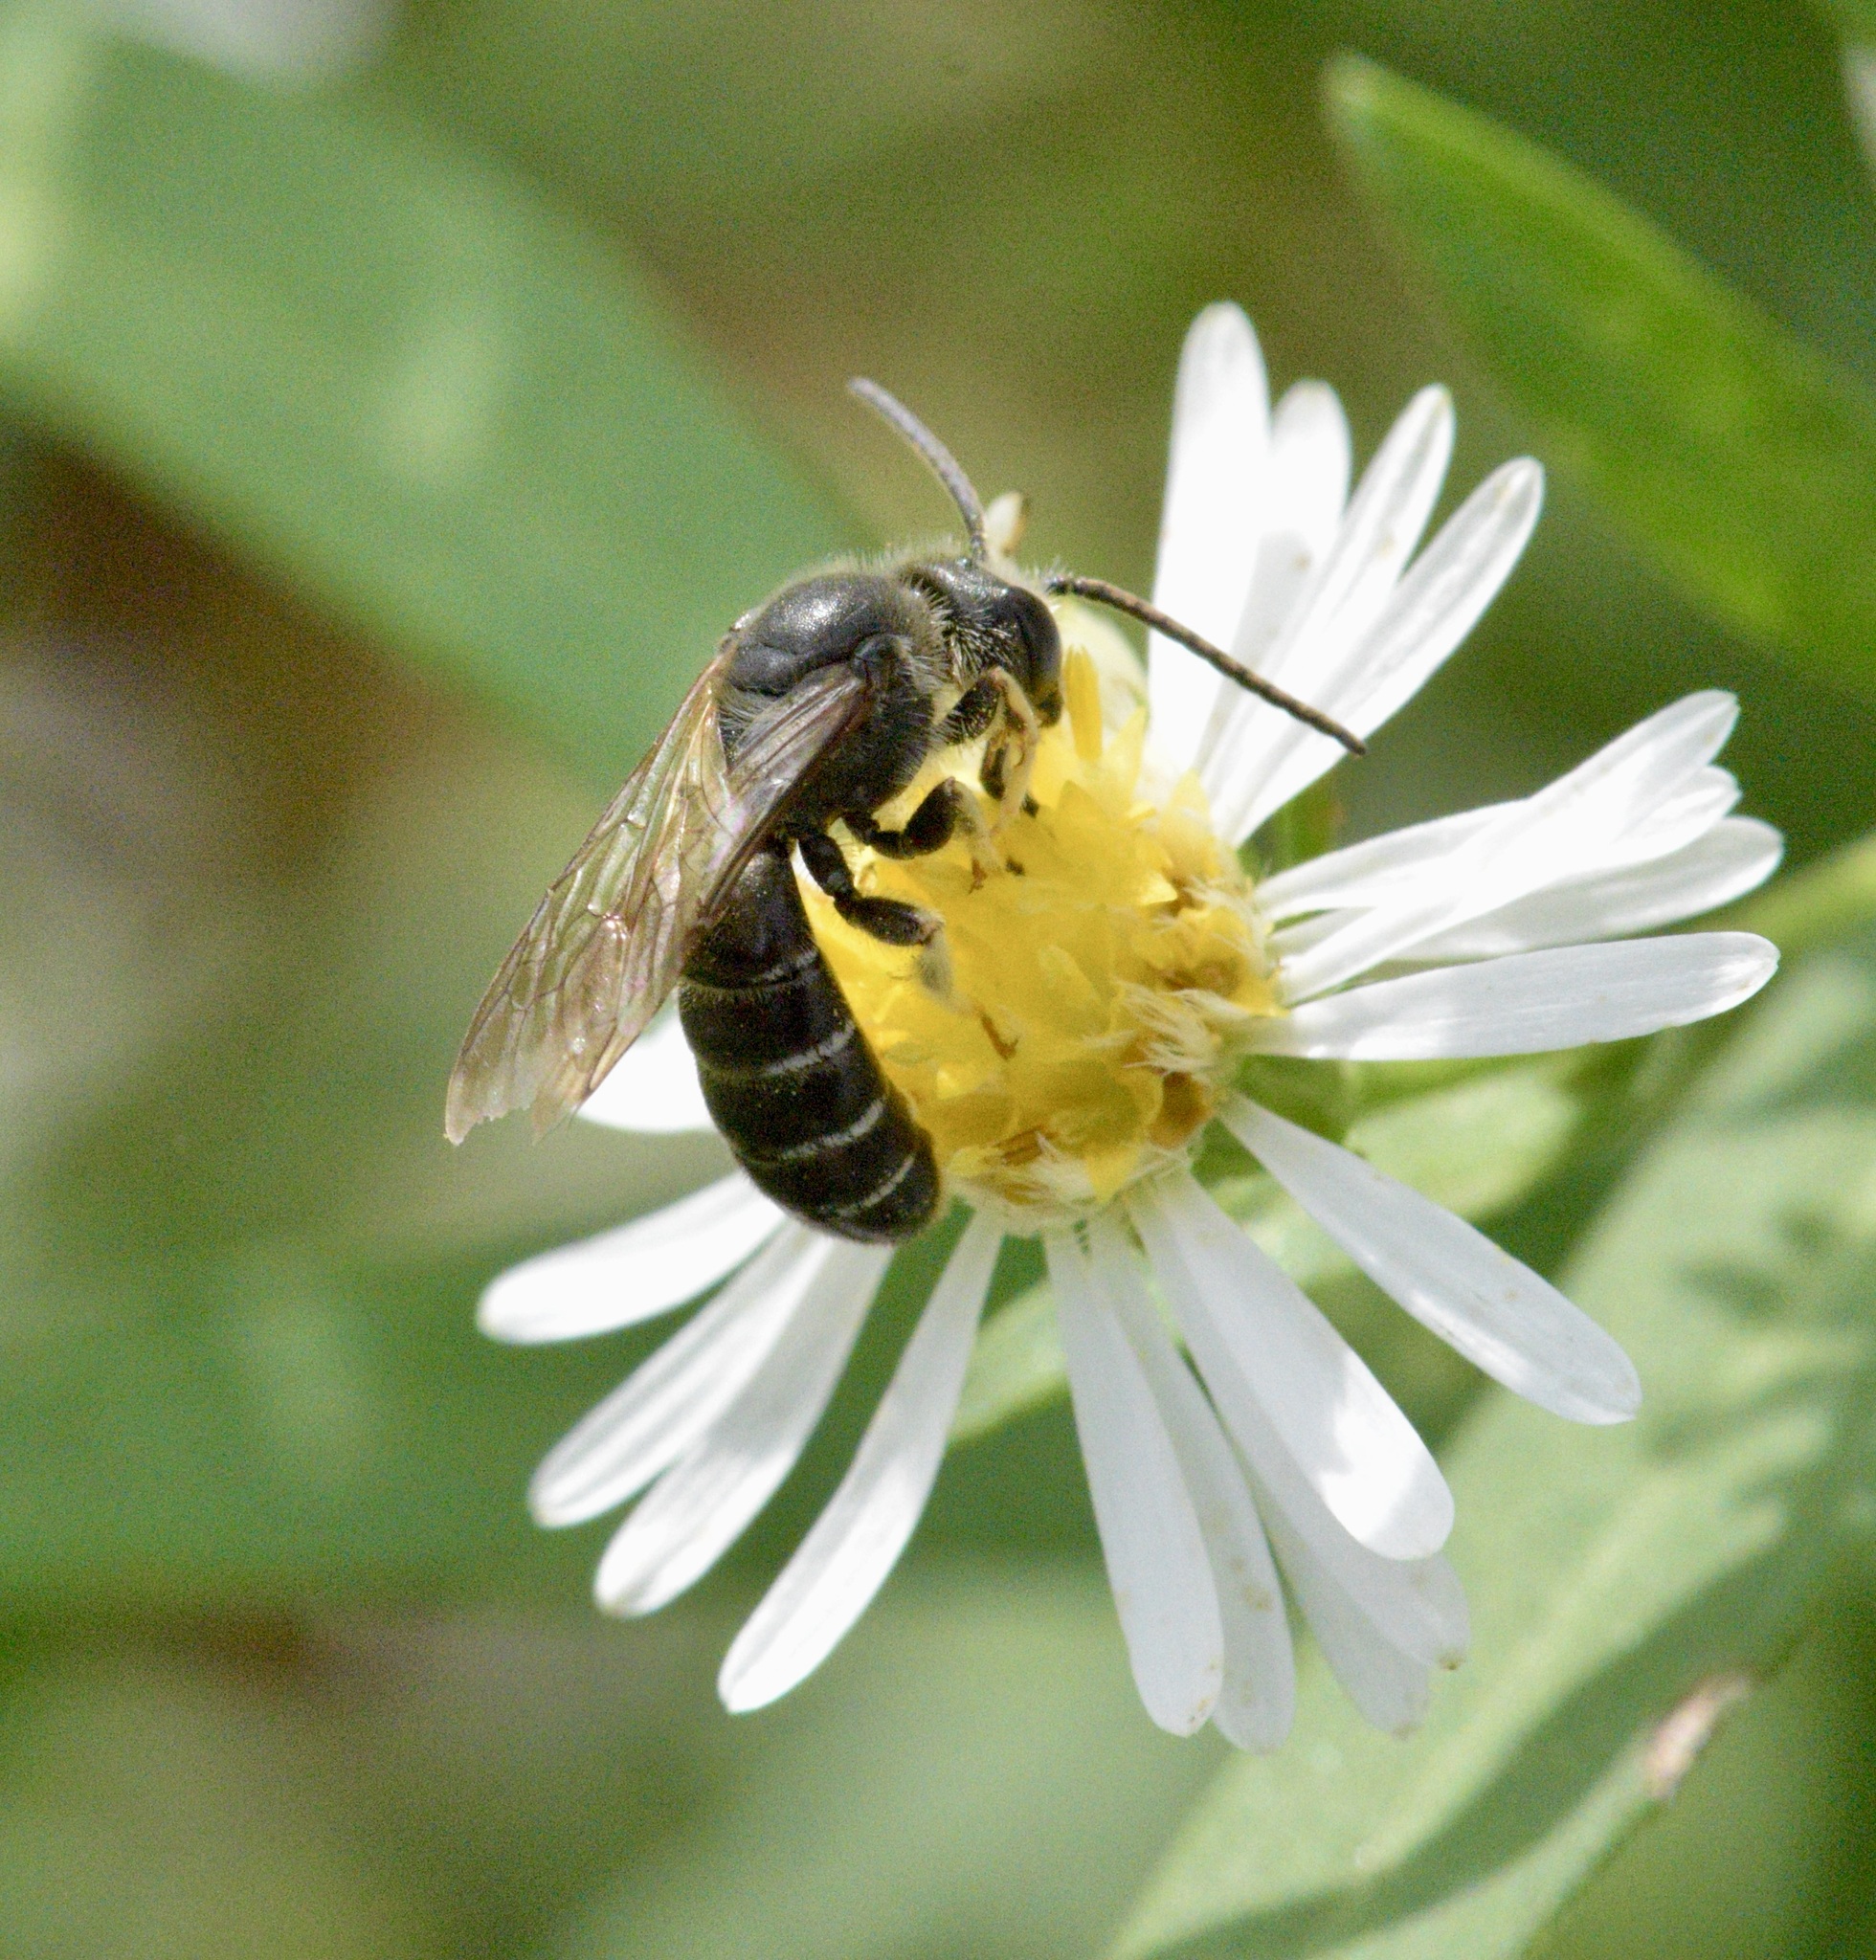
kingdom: Animalia
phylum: Arthropoda
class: Insecta
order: Hymenoptera
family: Halictidae
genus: Halictus
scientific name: Halictus rubicundus
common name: Orange-legged furrow bee
